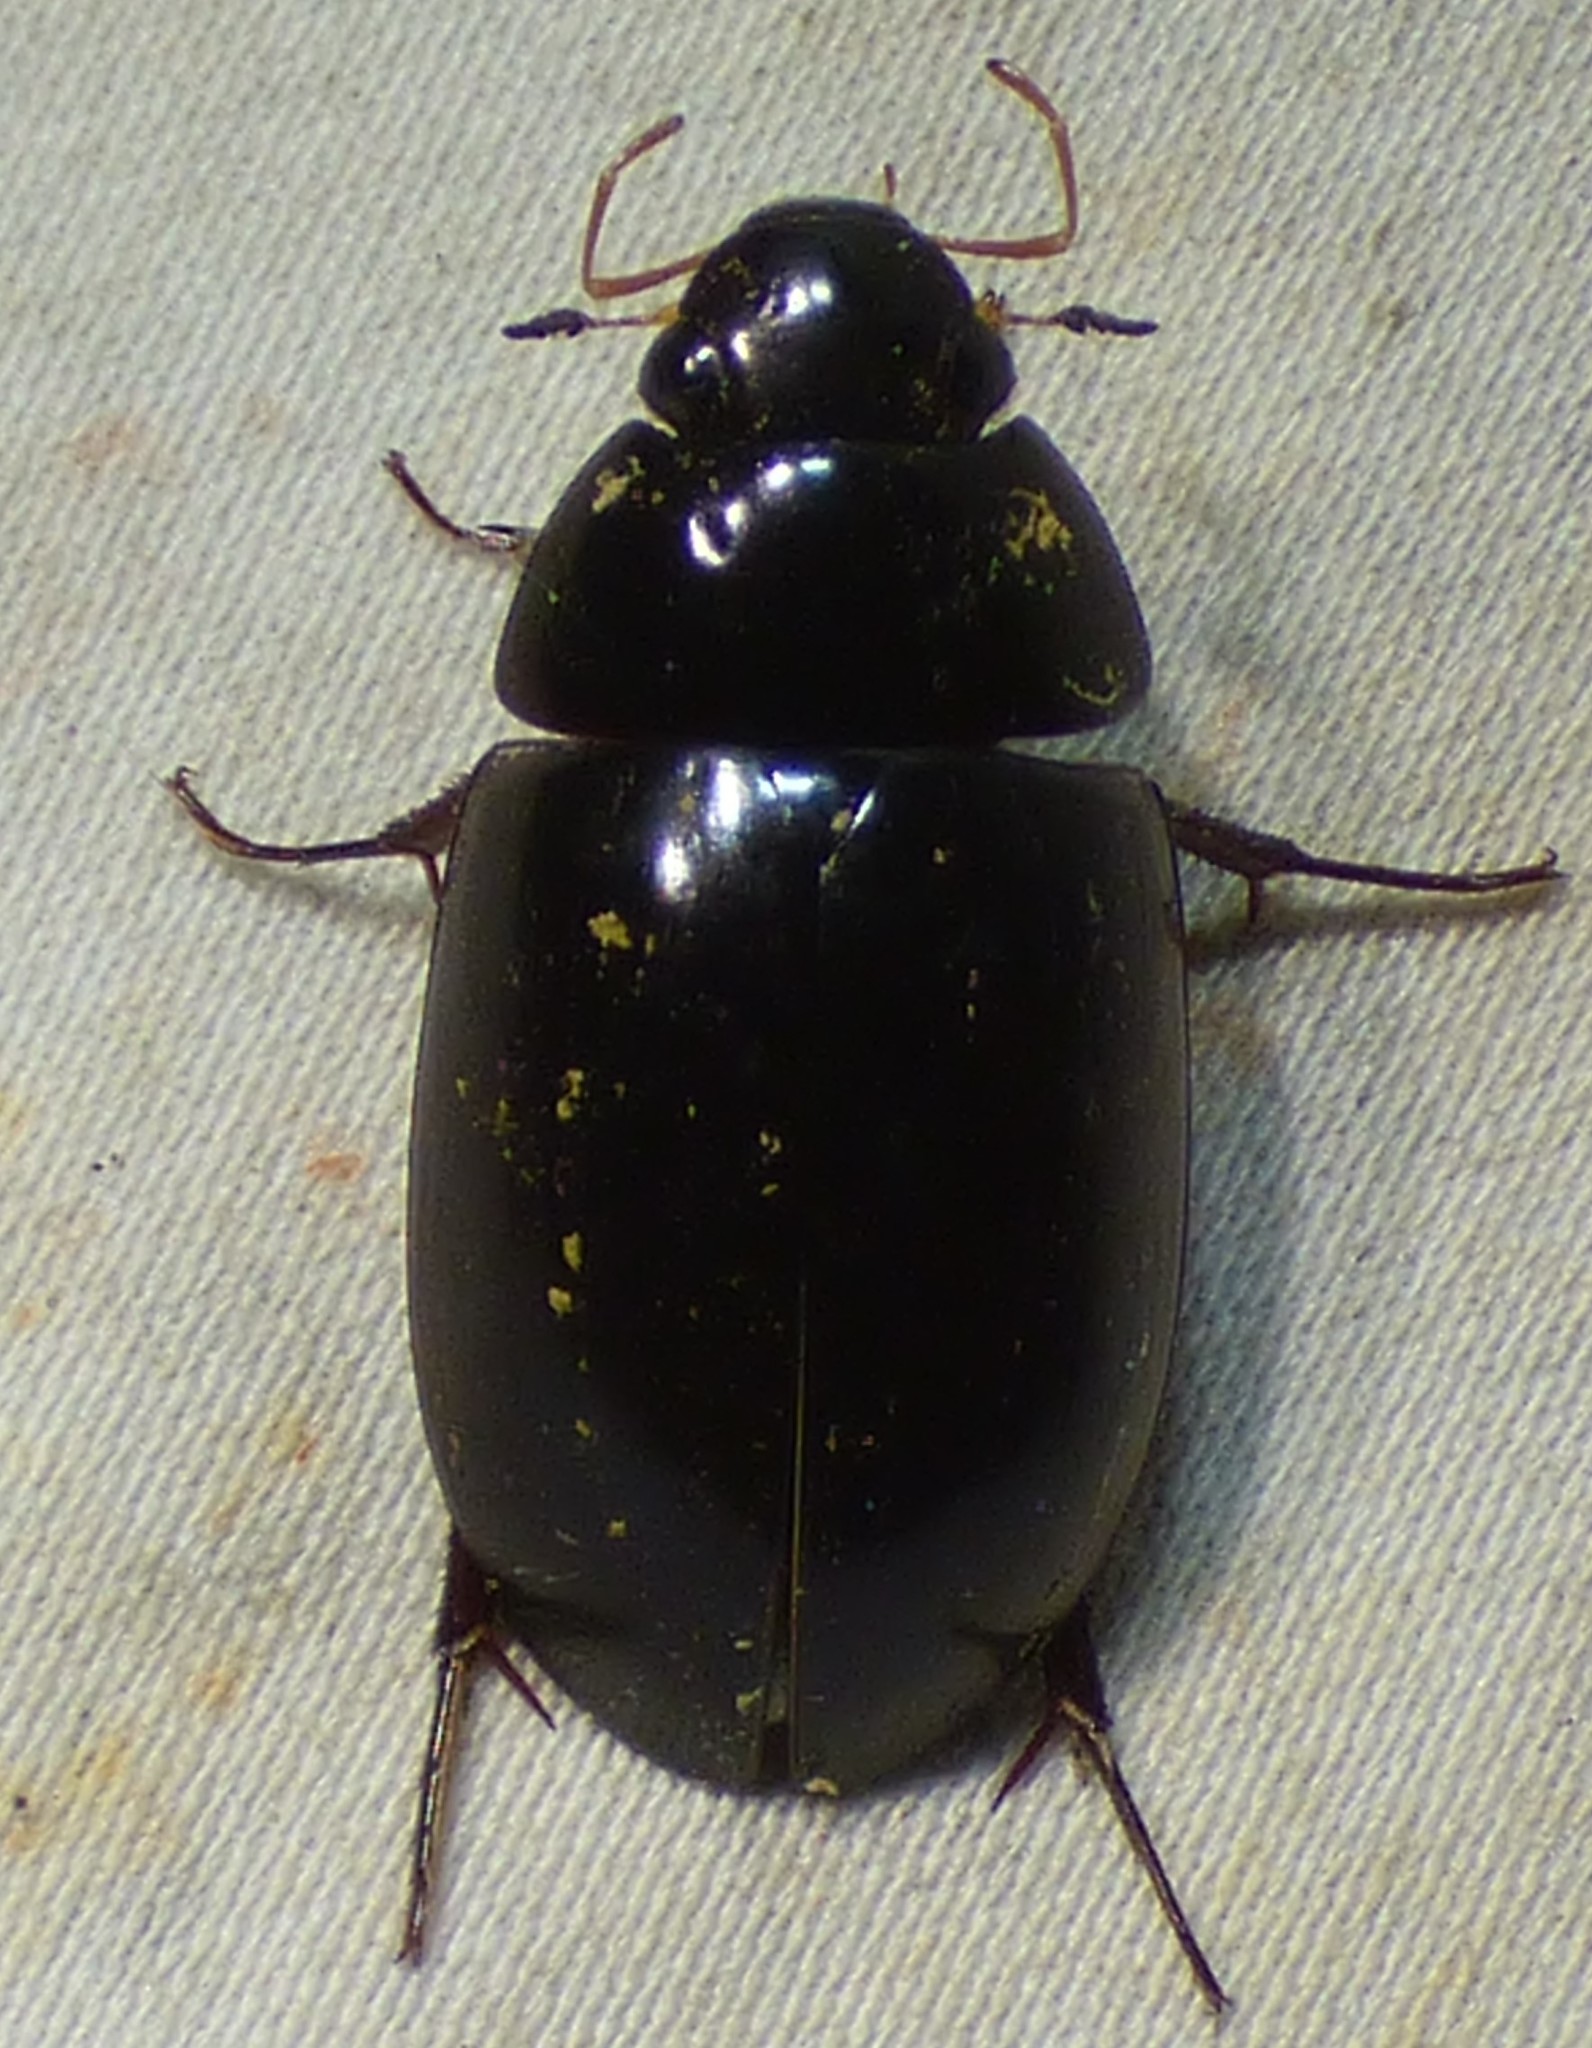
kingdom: Animalia
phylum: Arthropoda
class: Insecta
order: Coleoptera
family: Hydrophilidae
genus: Hydrochara
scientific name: Hydrochara soror
